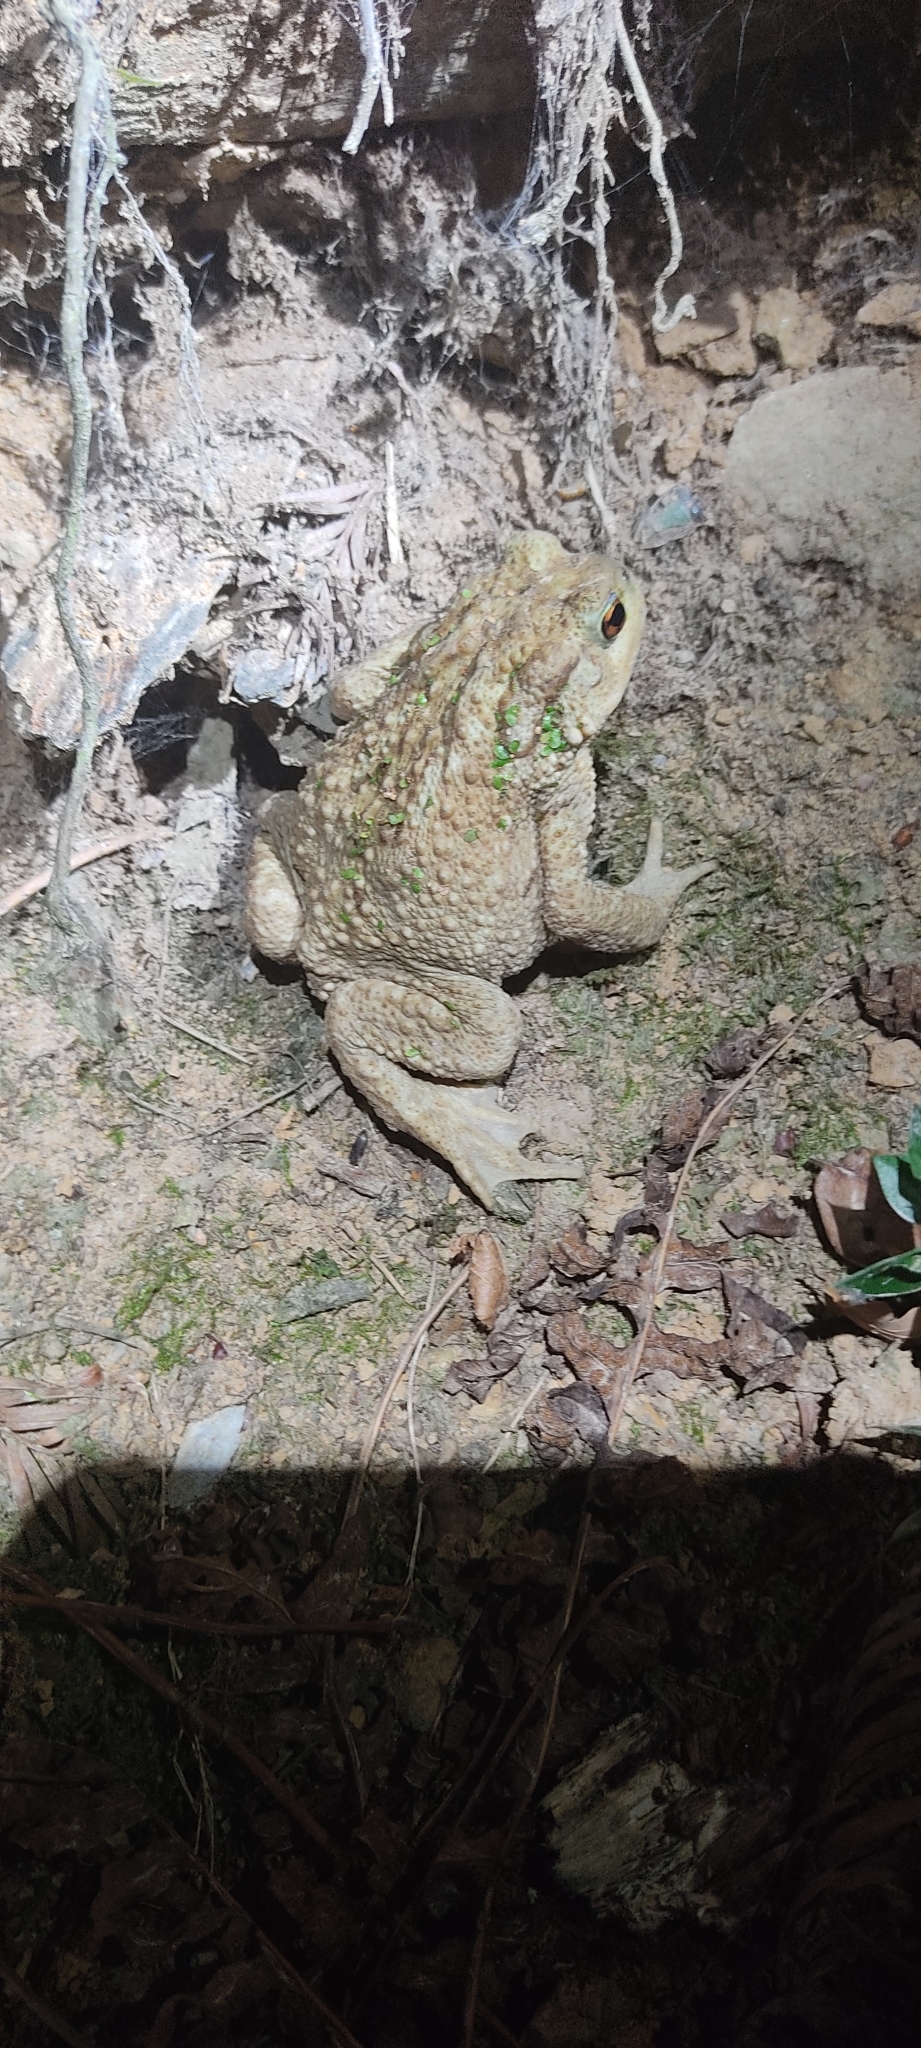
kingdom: Animalia
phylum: Chordata
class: Amphibia
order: Anura
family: Bufonidae
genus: Bufo
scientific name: Bufo spinosus
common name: Western common toad
